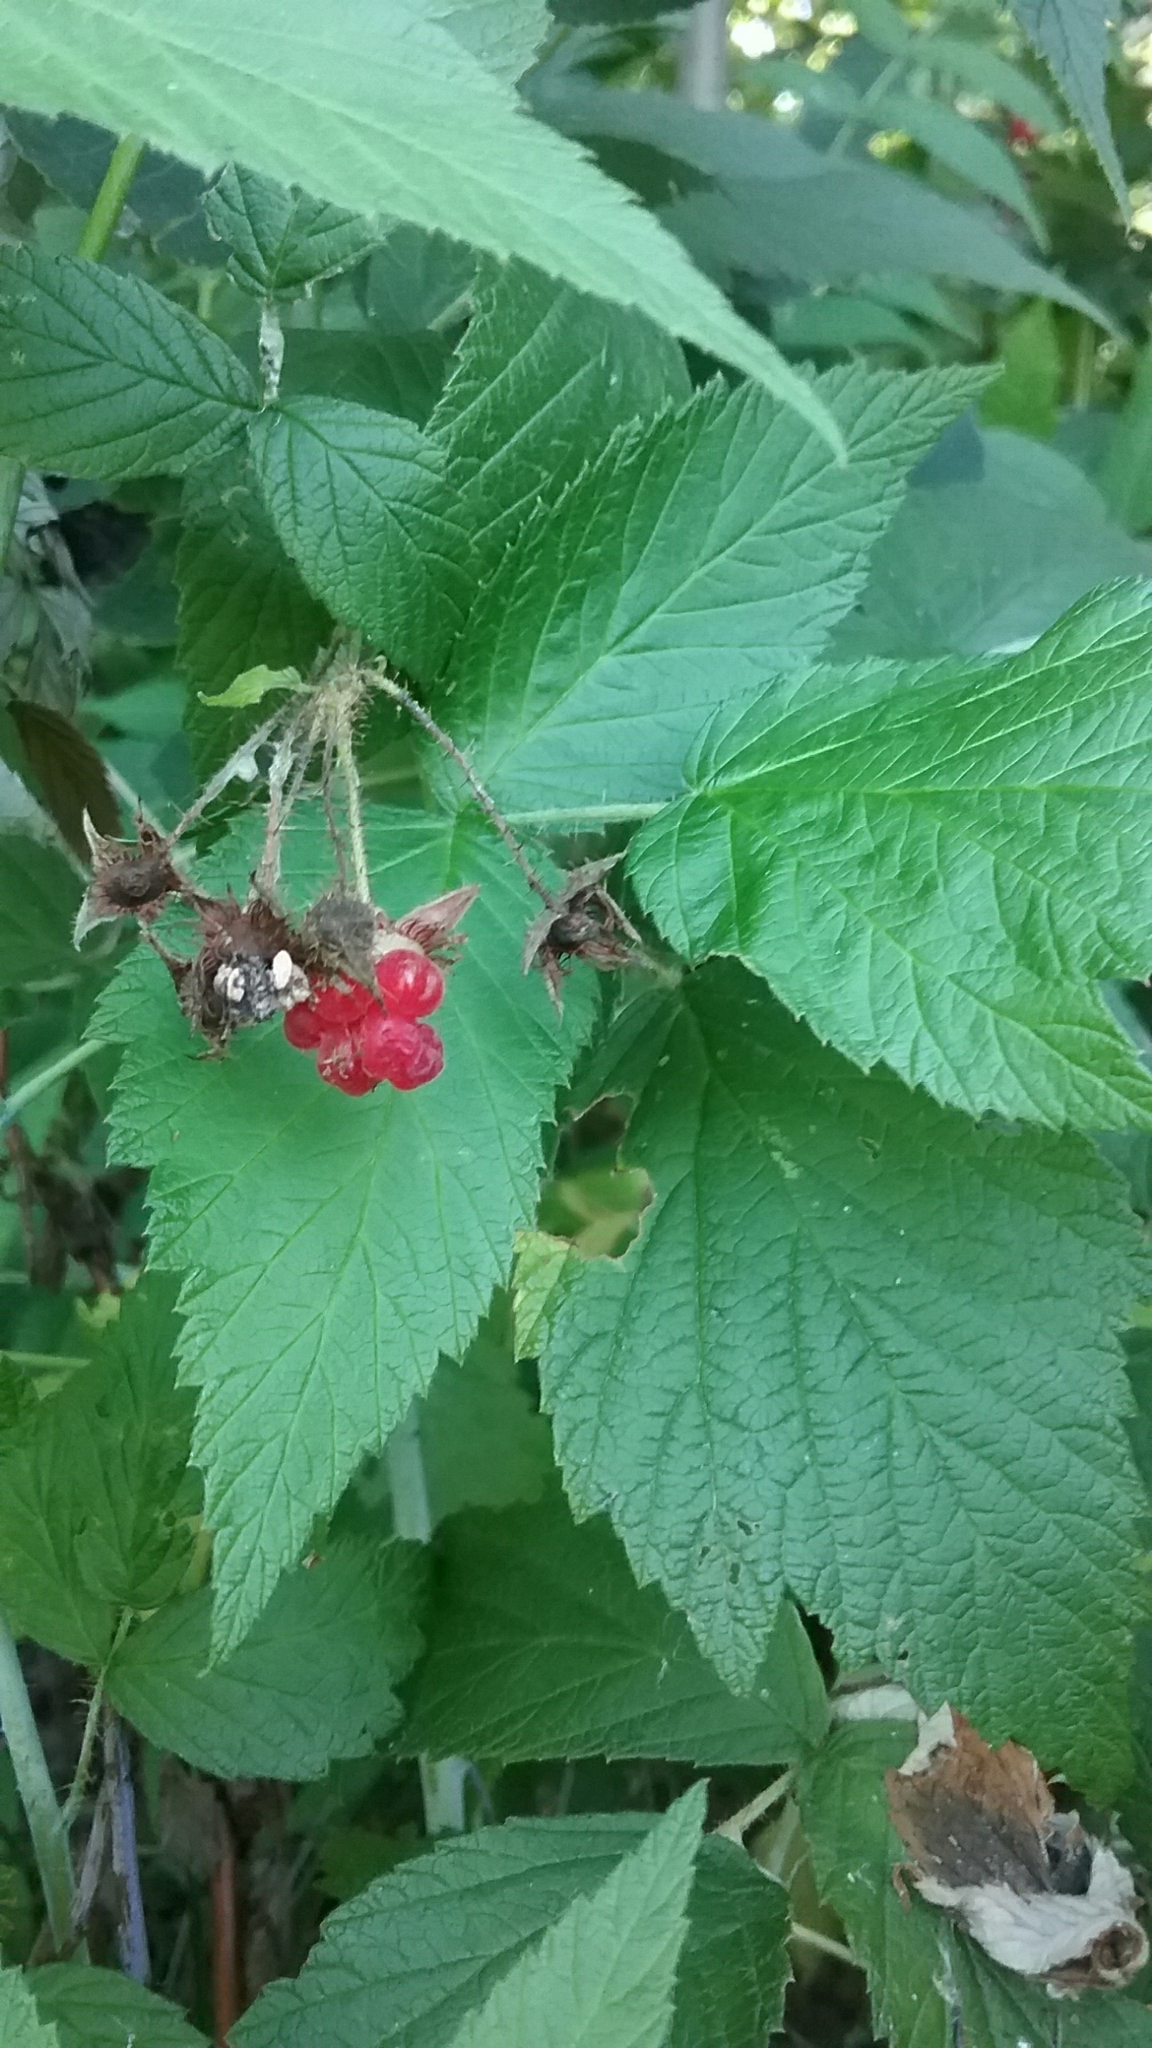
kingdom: Plantae
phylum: Tracheophyta
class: Magnoliopsida
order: Rosales
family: Rosaceae
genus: Rubus
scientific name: Rubus idaeus
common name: Raspberry
